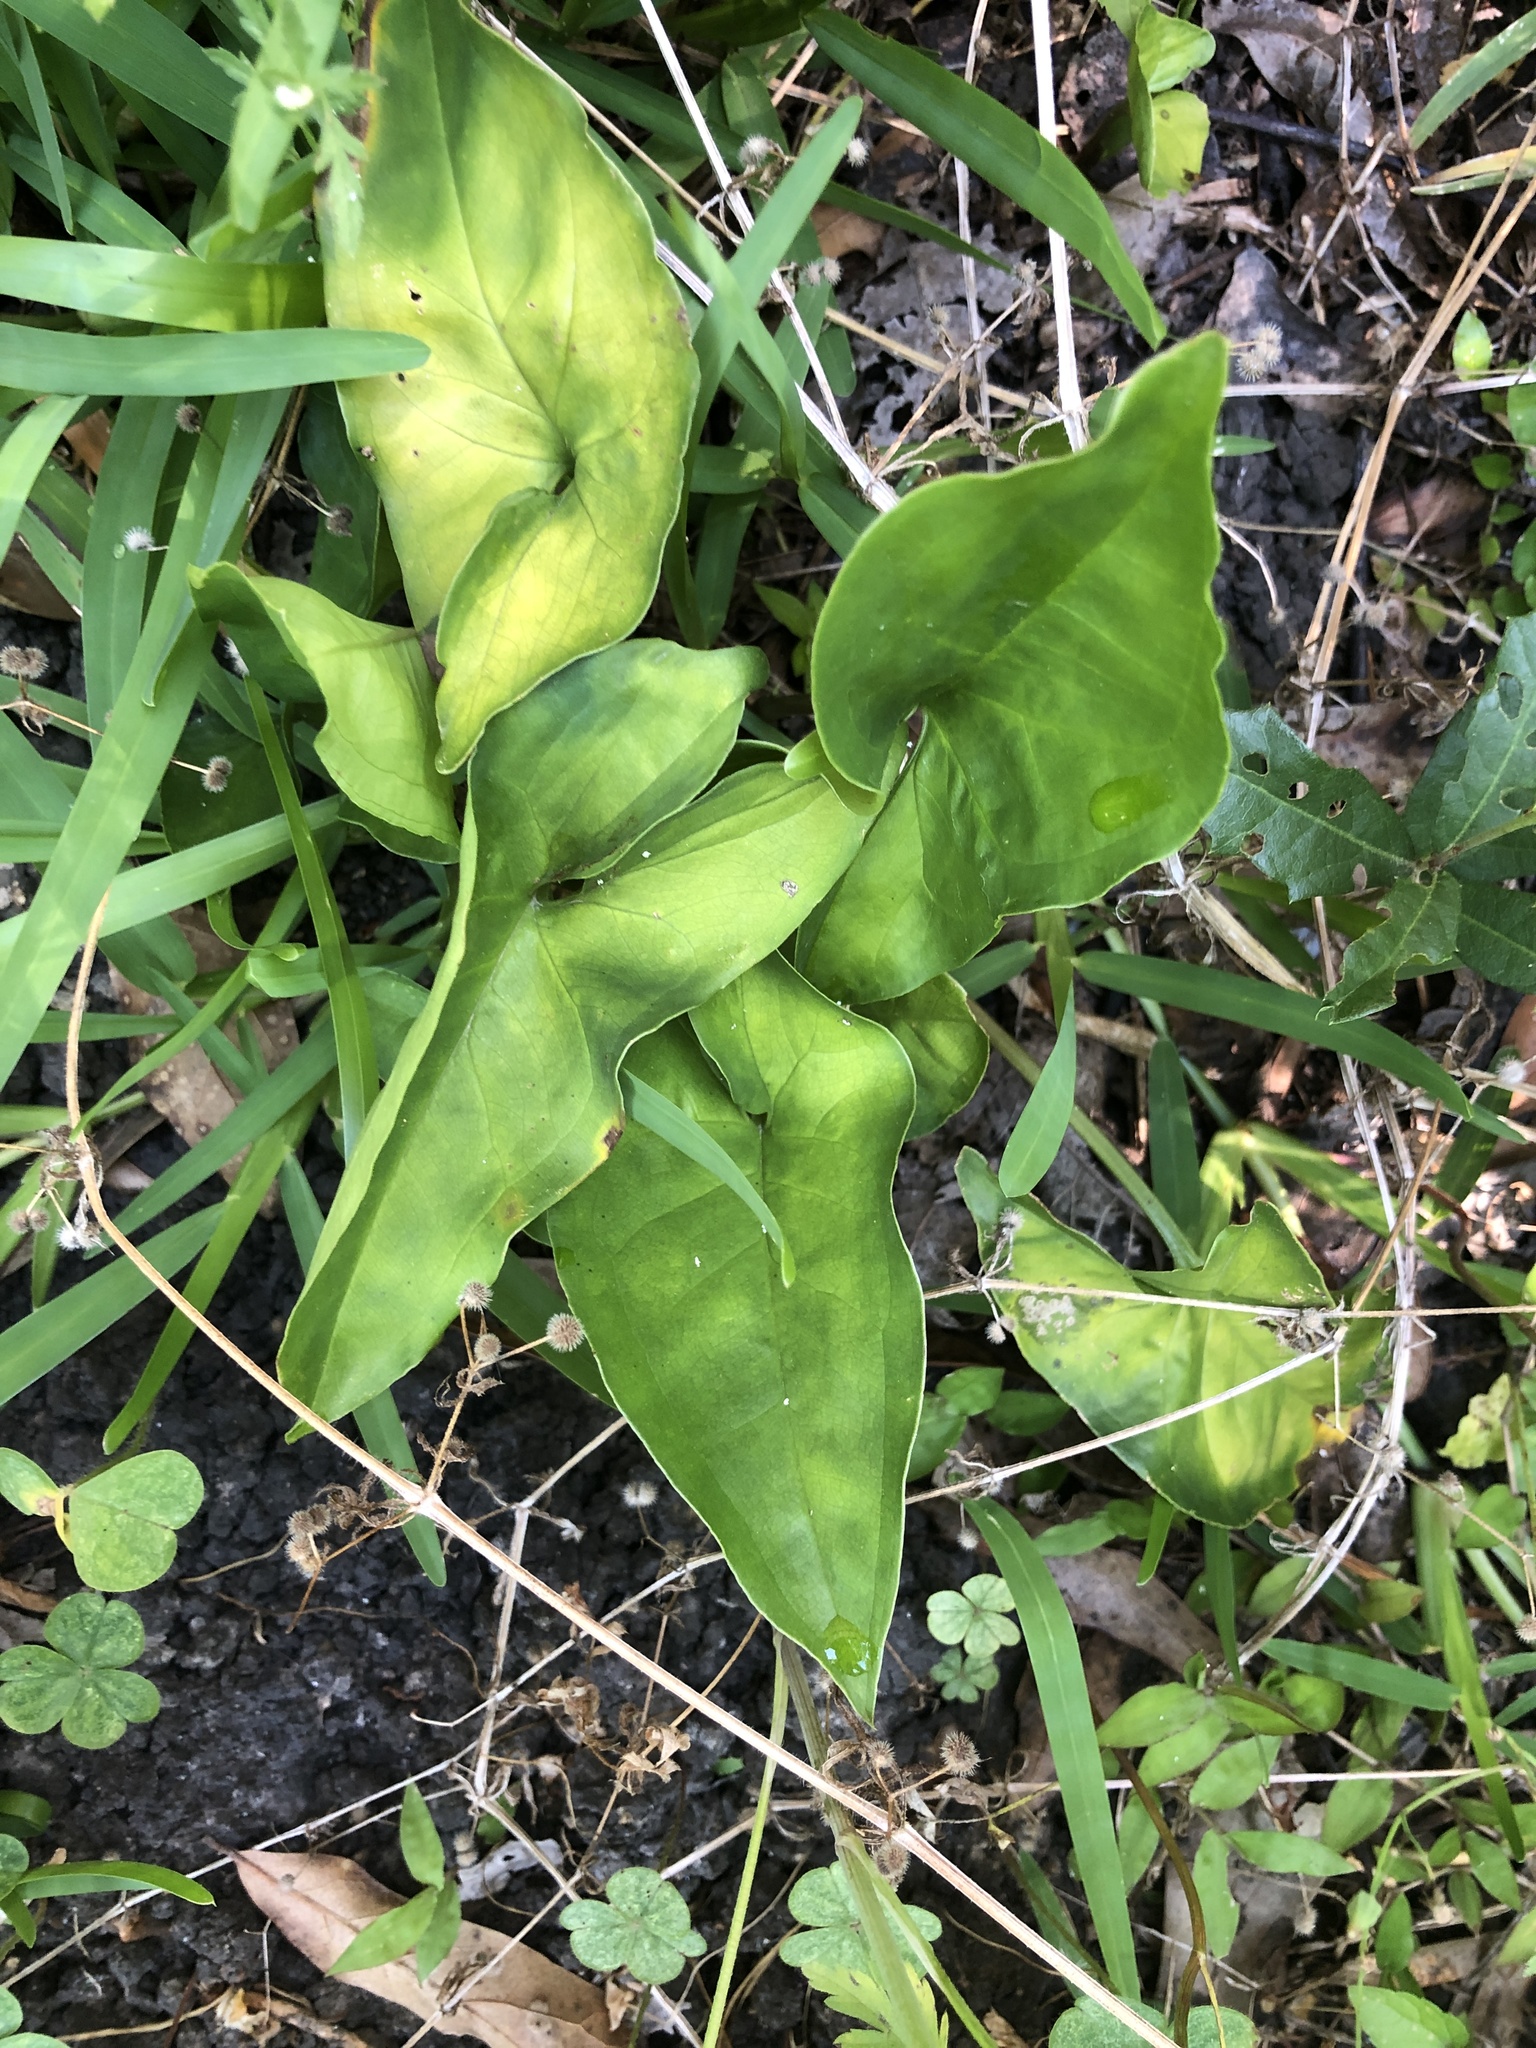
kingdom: Plantae
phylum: Tracheophyta
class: Liliopsida
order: Alismatales
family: Araceae
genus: Syngonium
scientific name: Syngonium podophyllum
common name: American evergreen
